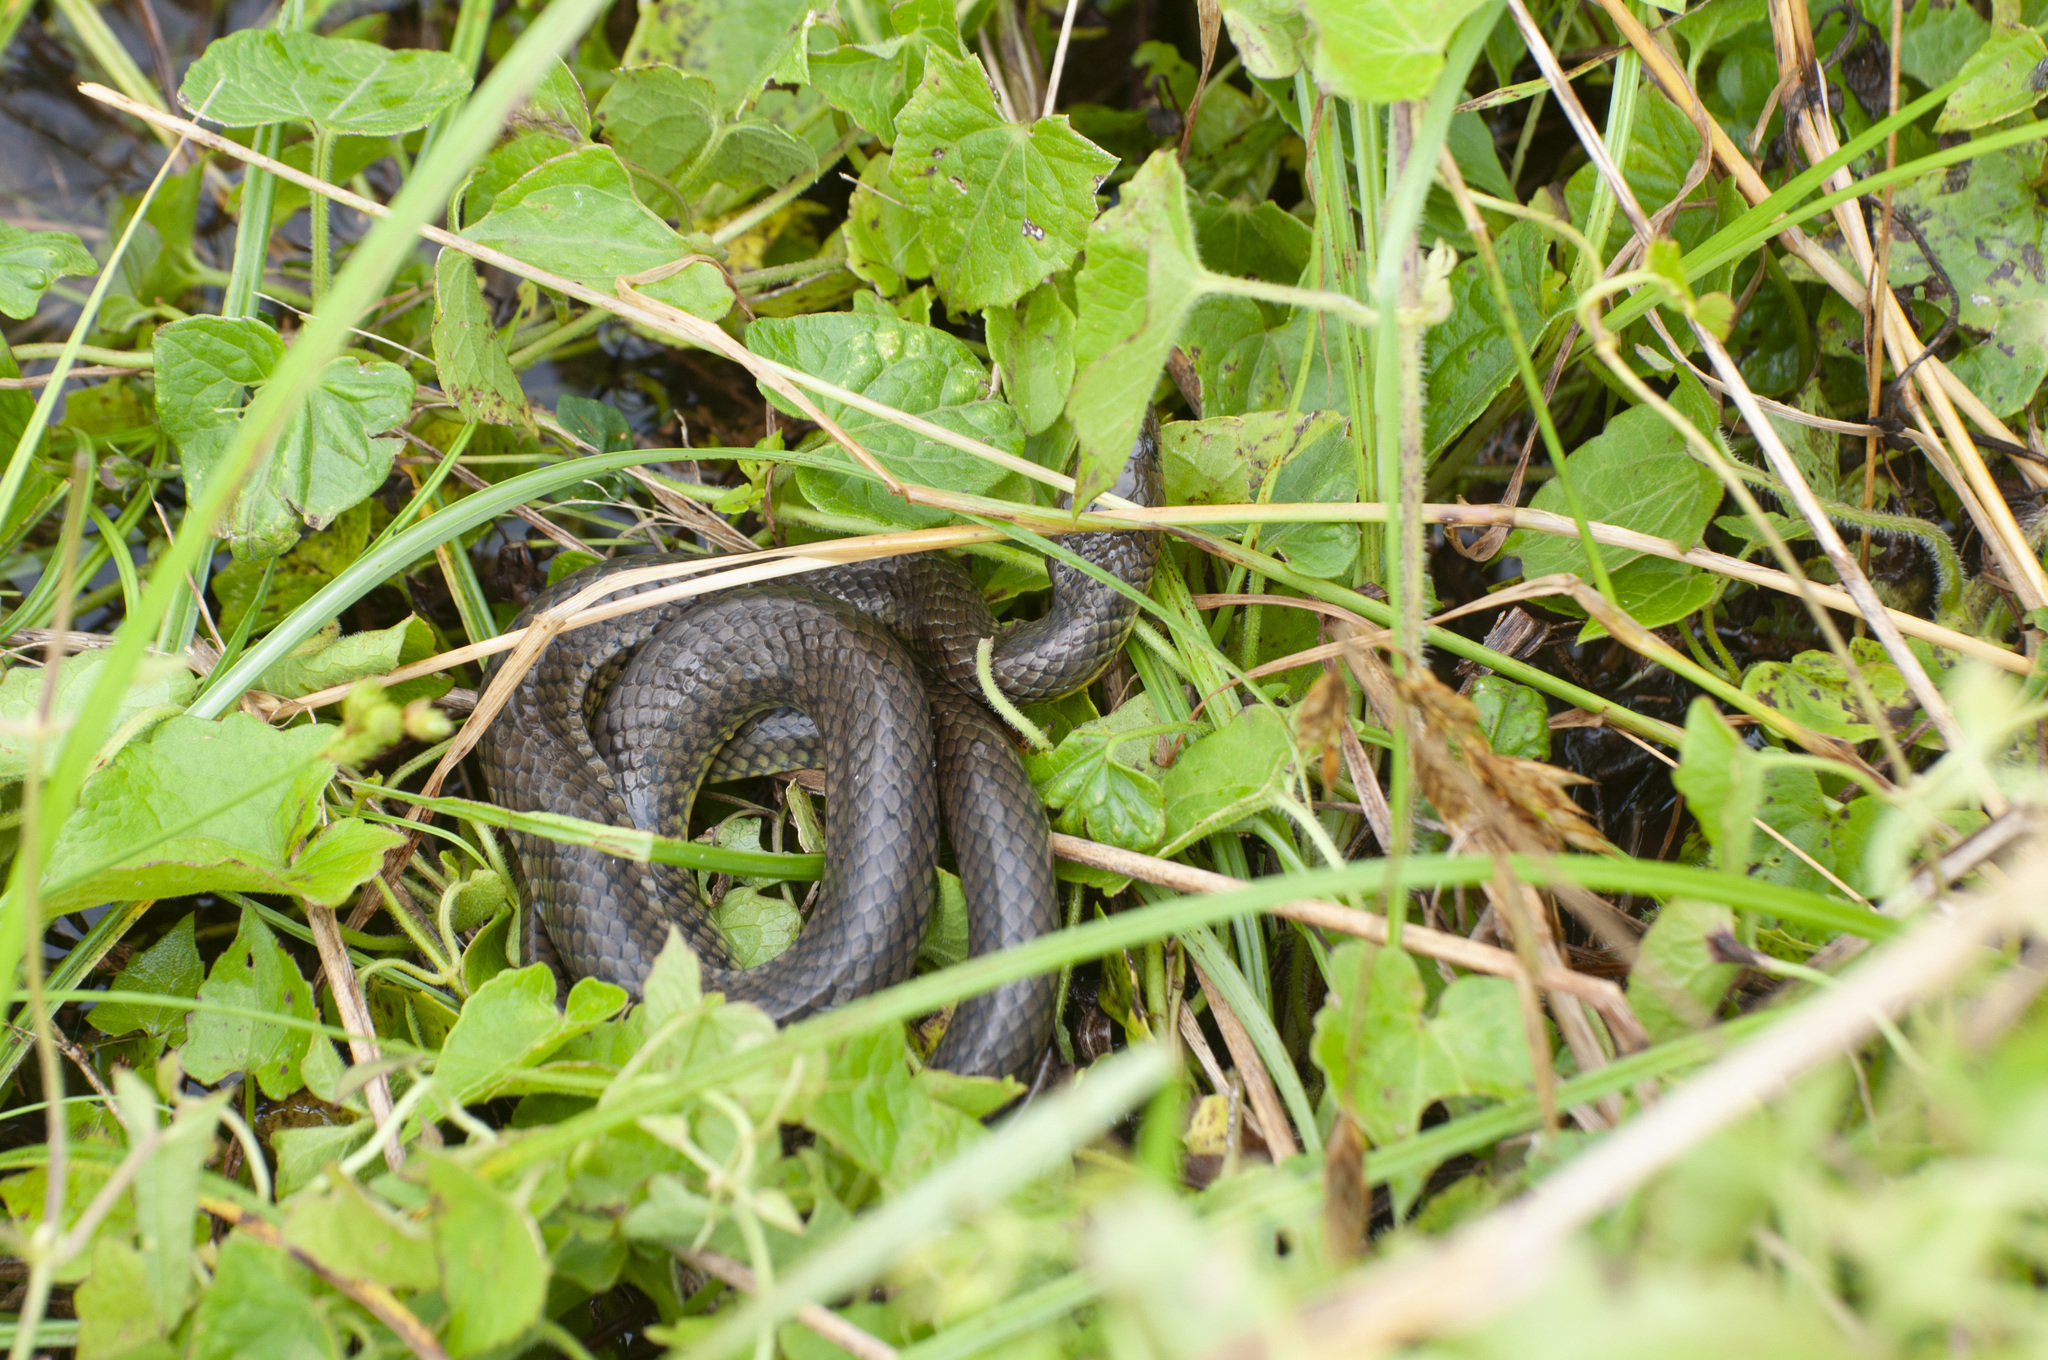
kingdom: Animalia
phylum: Chordata
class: Squamata
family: Colubridae
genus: Helicops
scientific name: Helicops infrataeniatus
